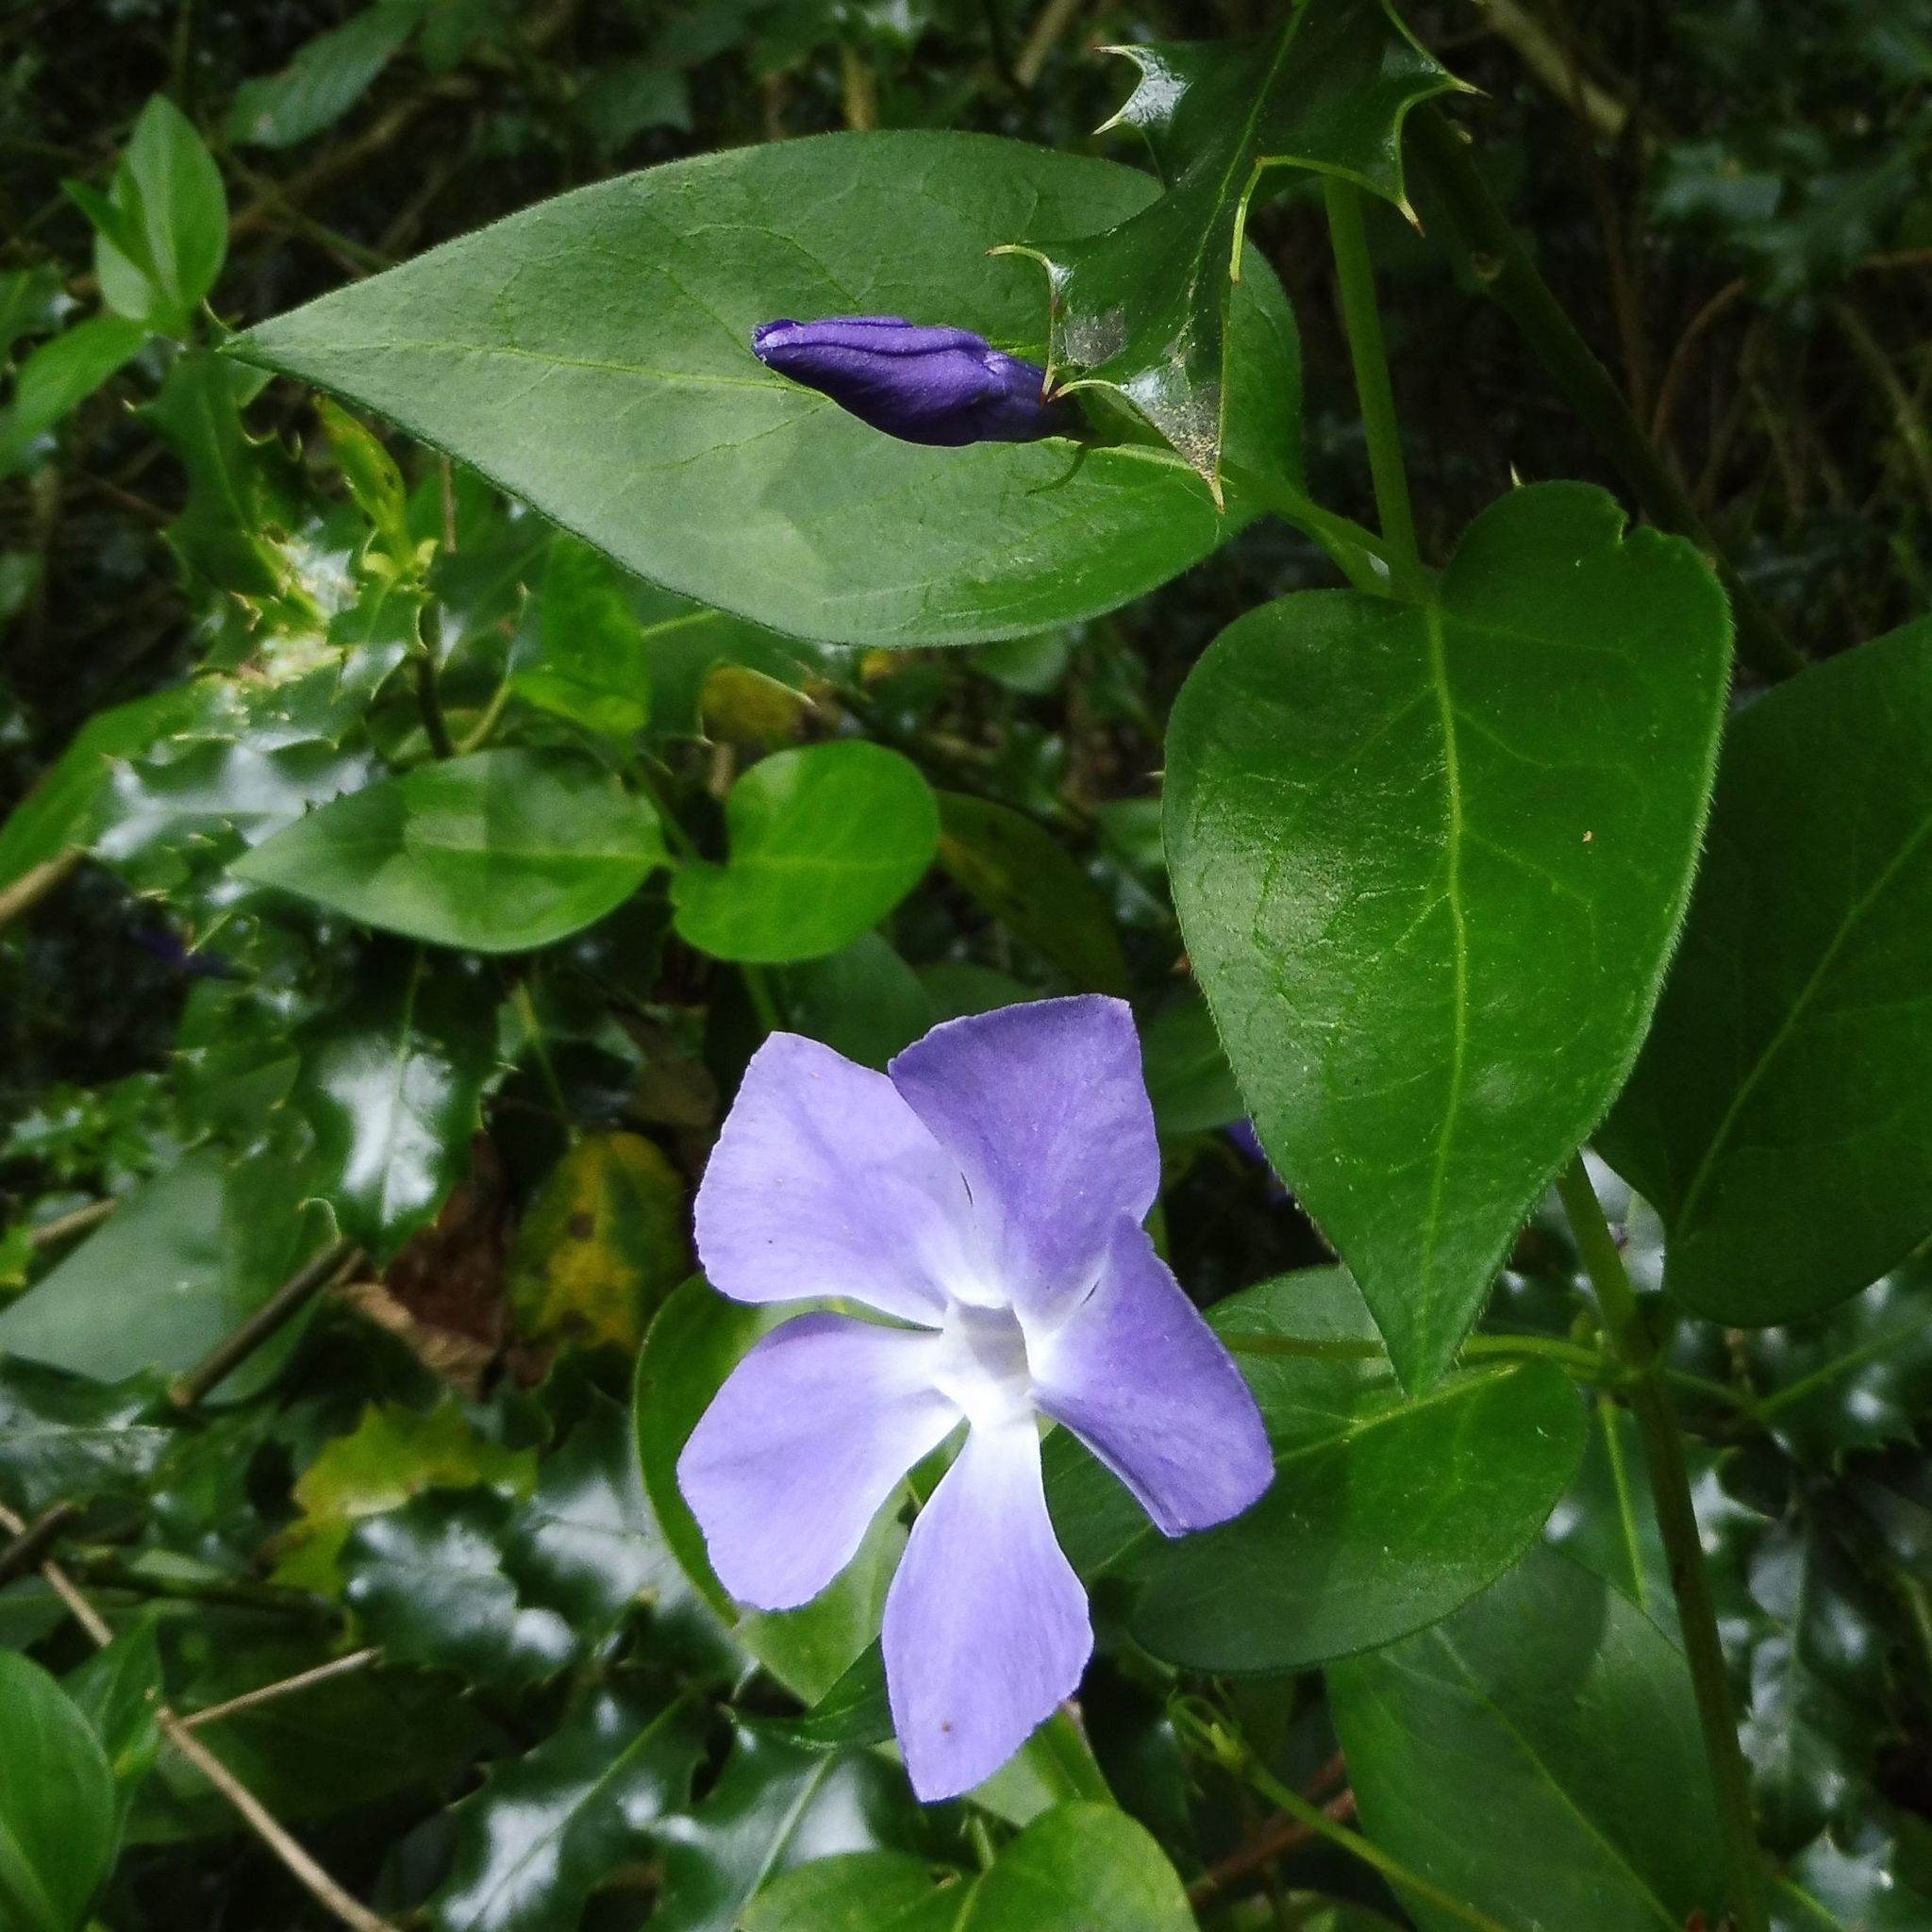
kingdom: Plantae
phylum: Tracheophyta
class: Magnoliopsida
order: Gentianales
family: Apocynaceae
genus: Vinca
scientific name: Vinca major
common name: Greater periwinkle
